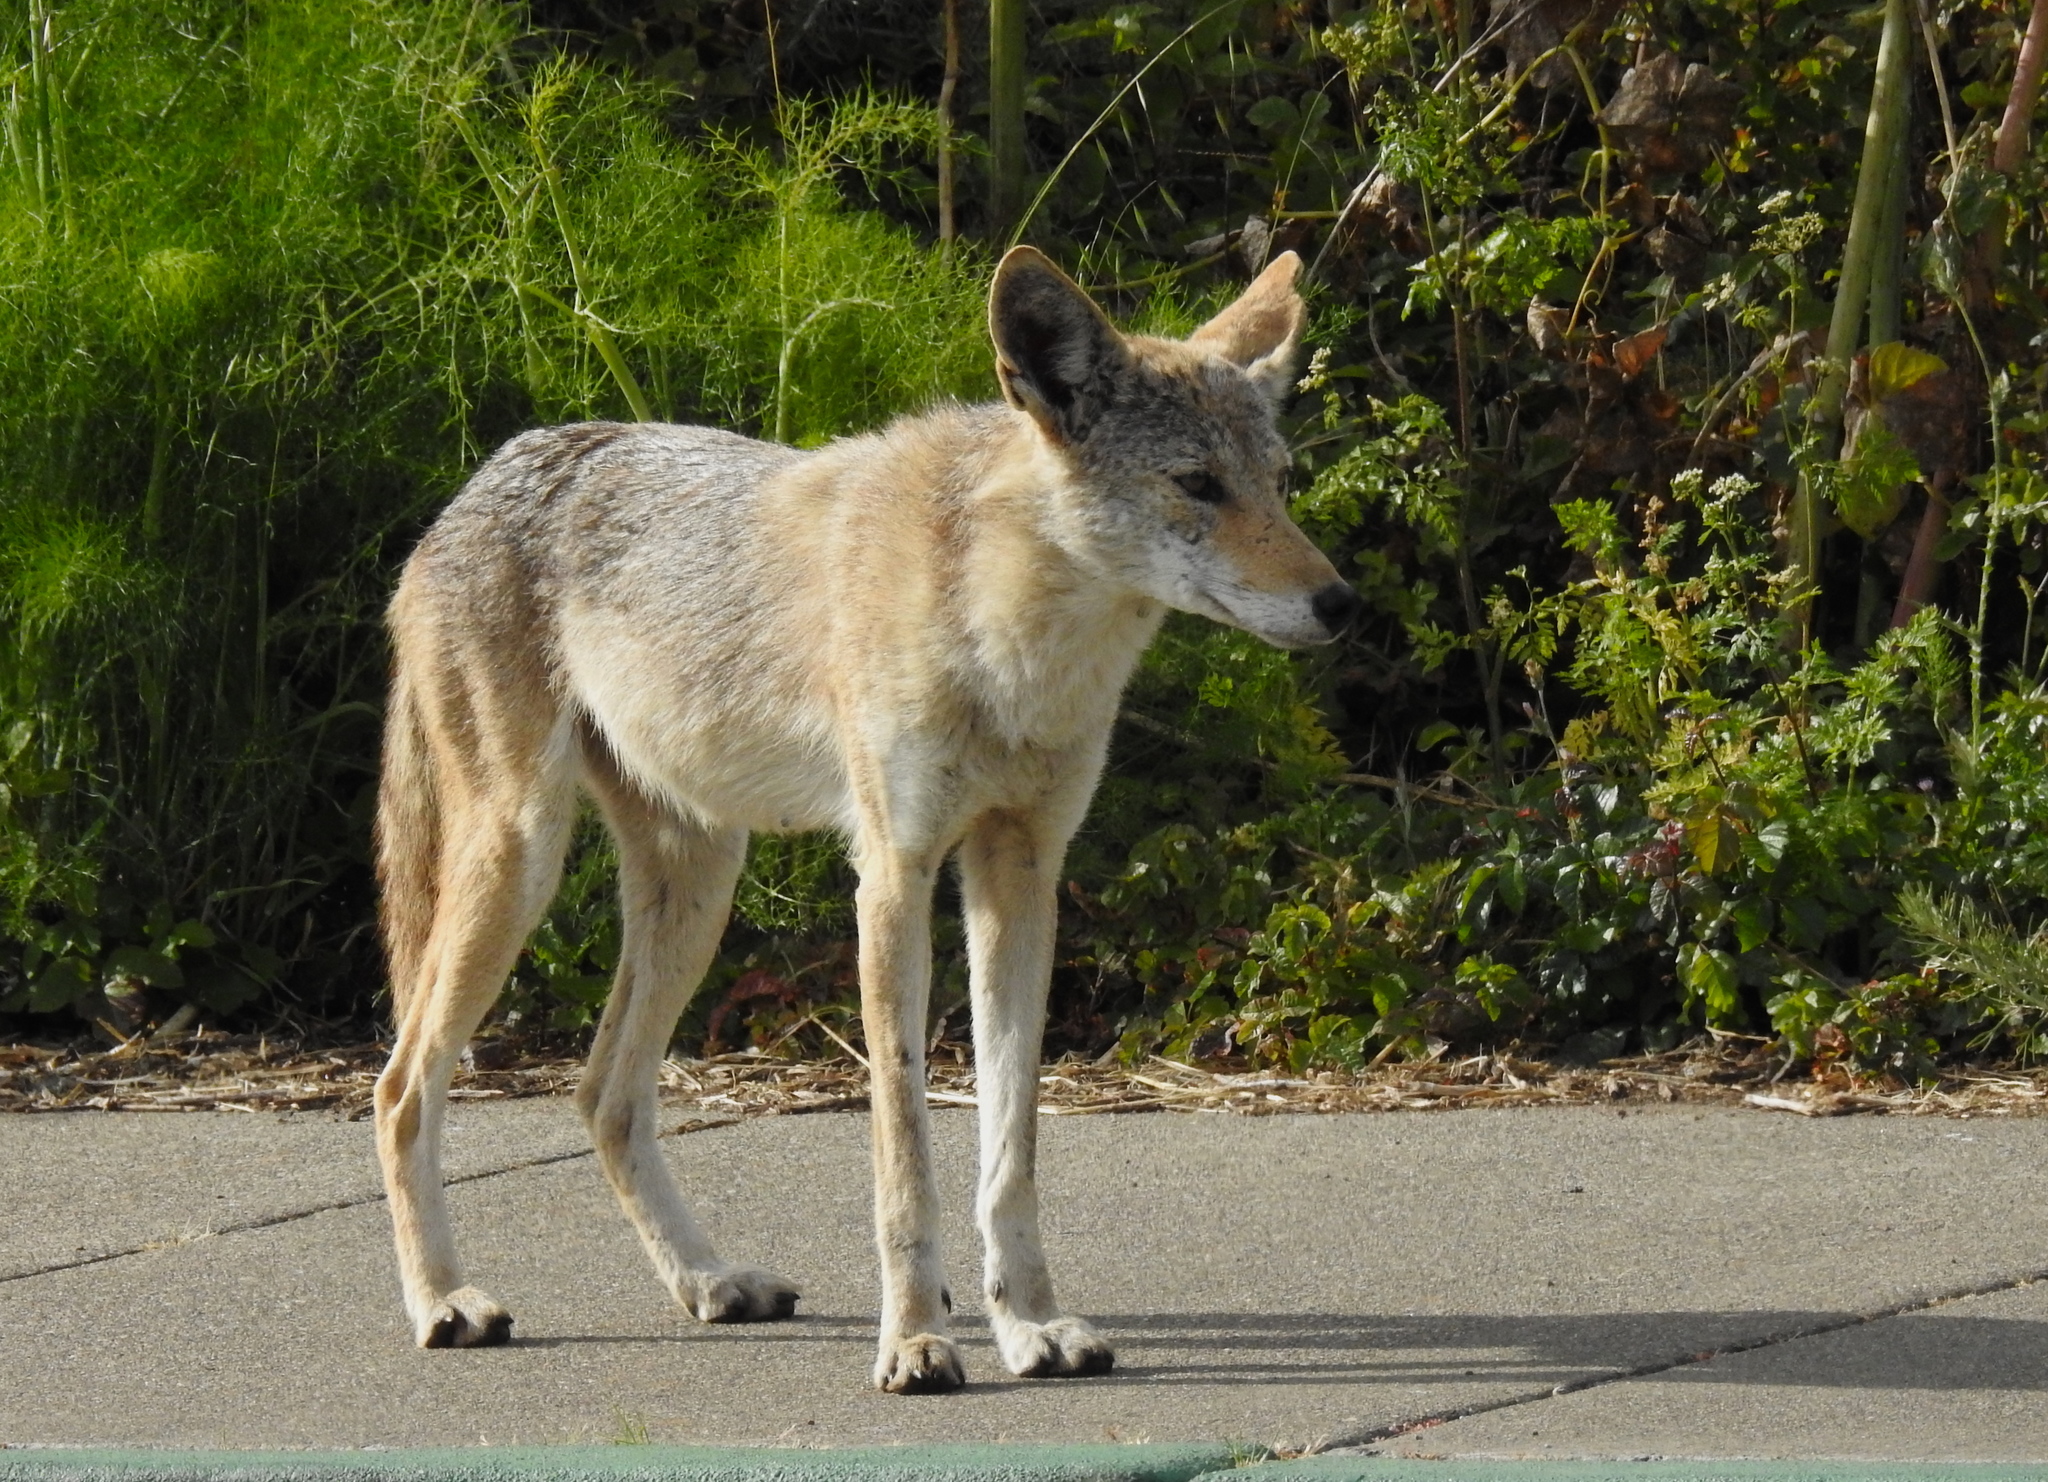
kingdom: Animalia
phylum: Chordata
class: Mammalia
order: Carnivora
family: Canidae
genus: Canis
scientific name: Canis latrans
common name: Coyote
